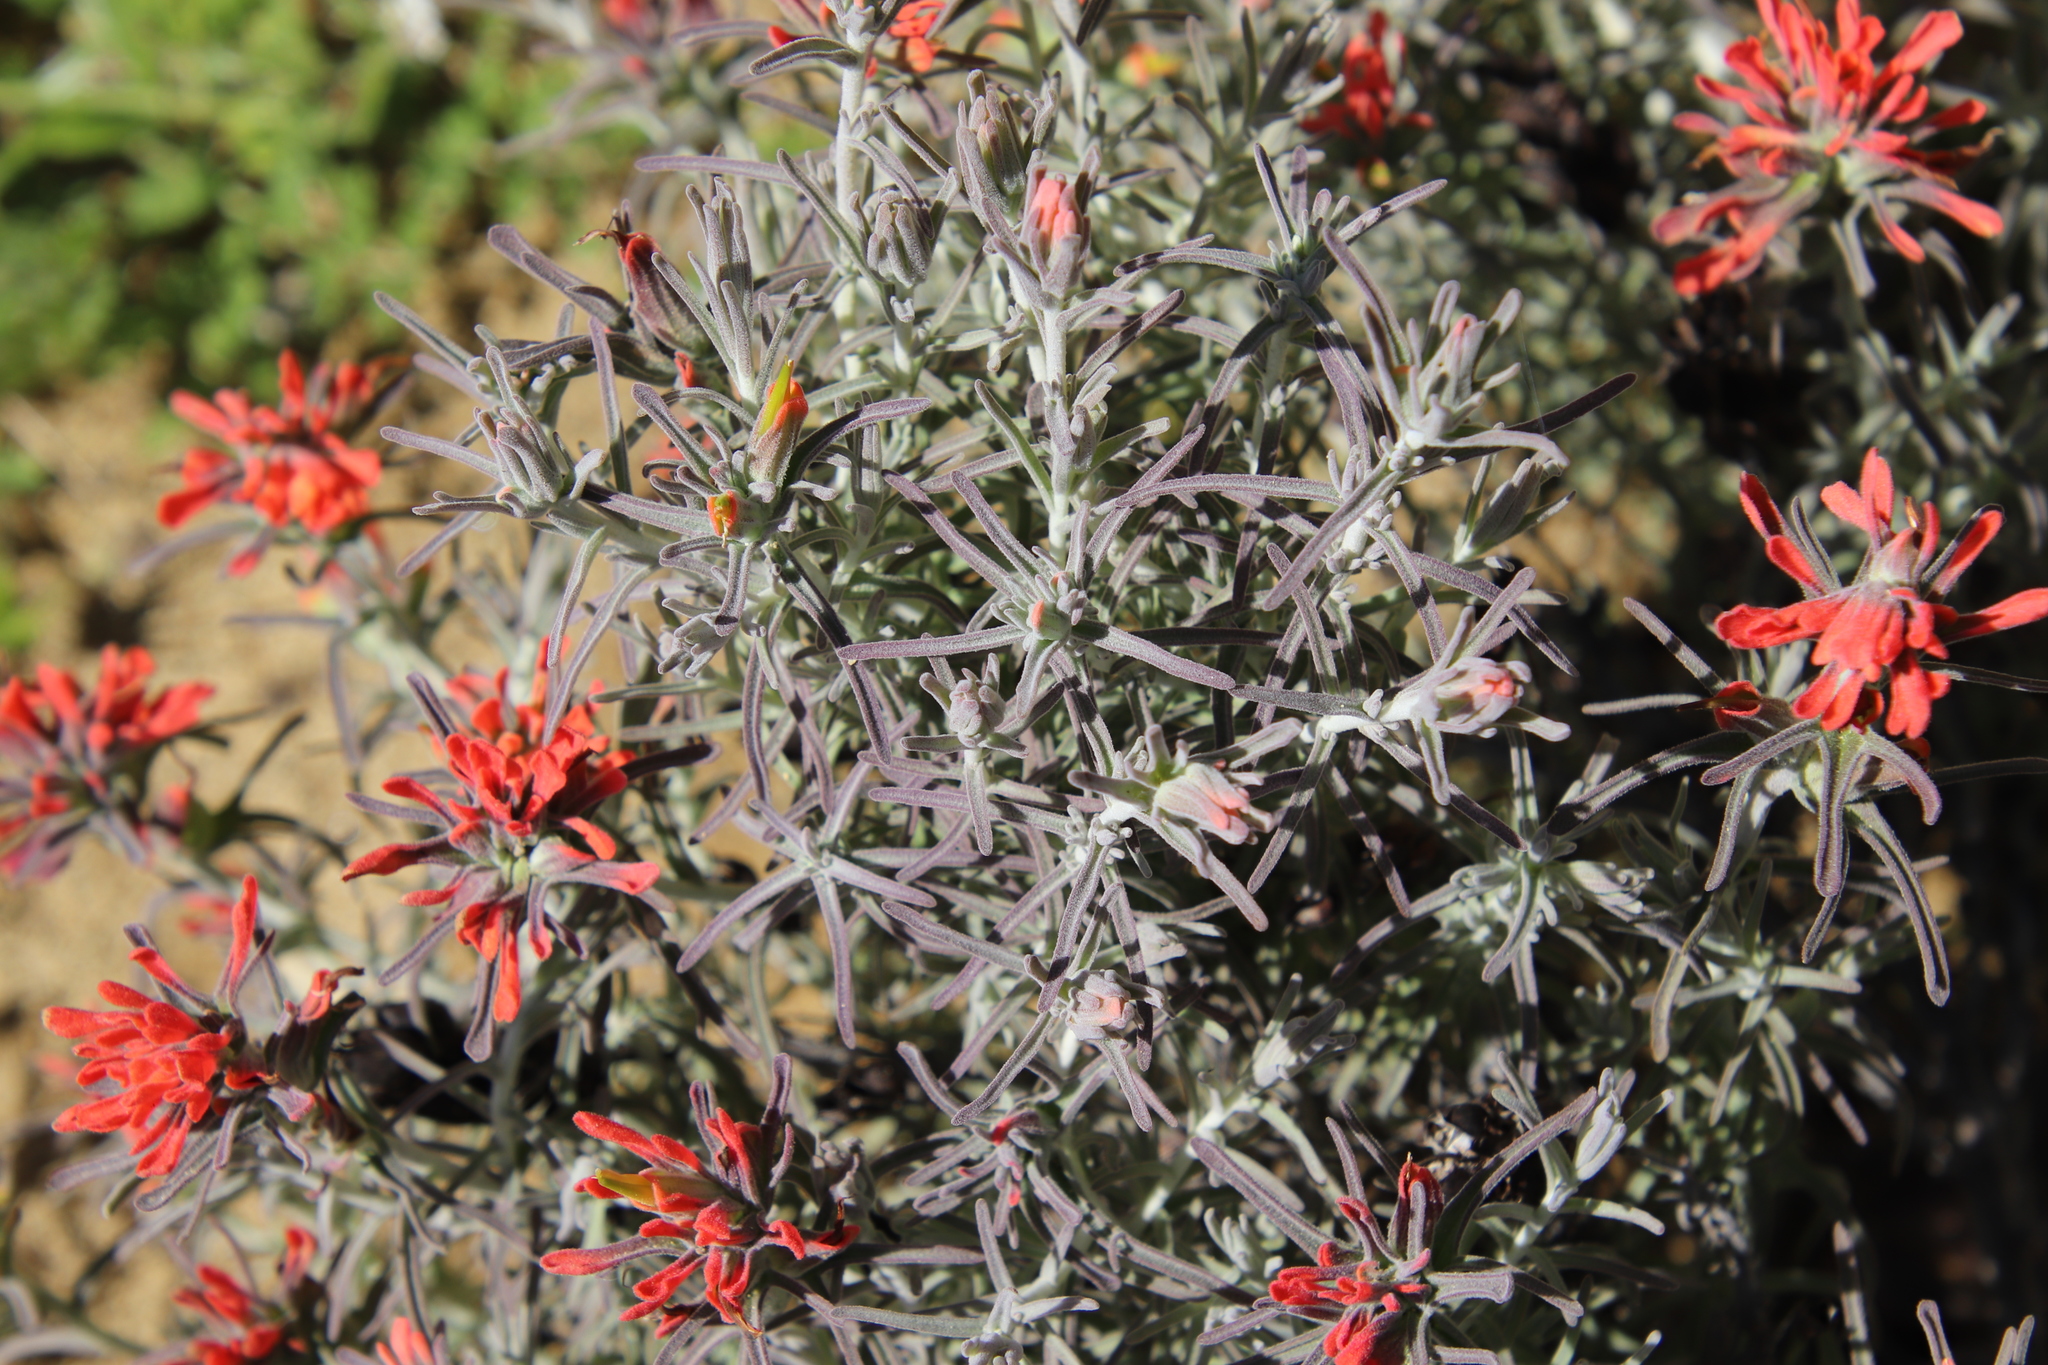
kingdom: Plantae
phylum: Tracheophyta
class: Magnoliopsida
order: Lamiales
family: Orobanchaceae
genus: Castilleja
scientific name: Castilleja foliolosa
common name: Woolly indian paintbrush
